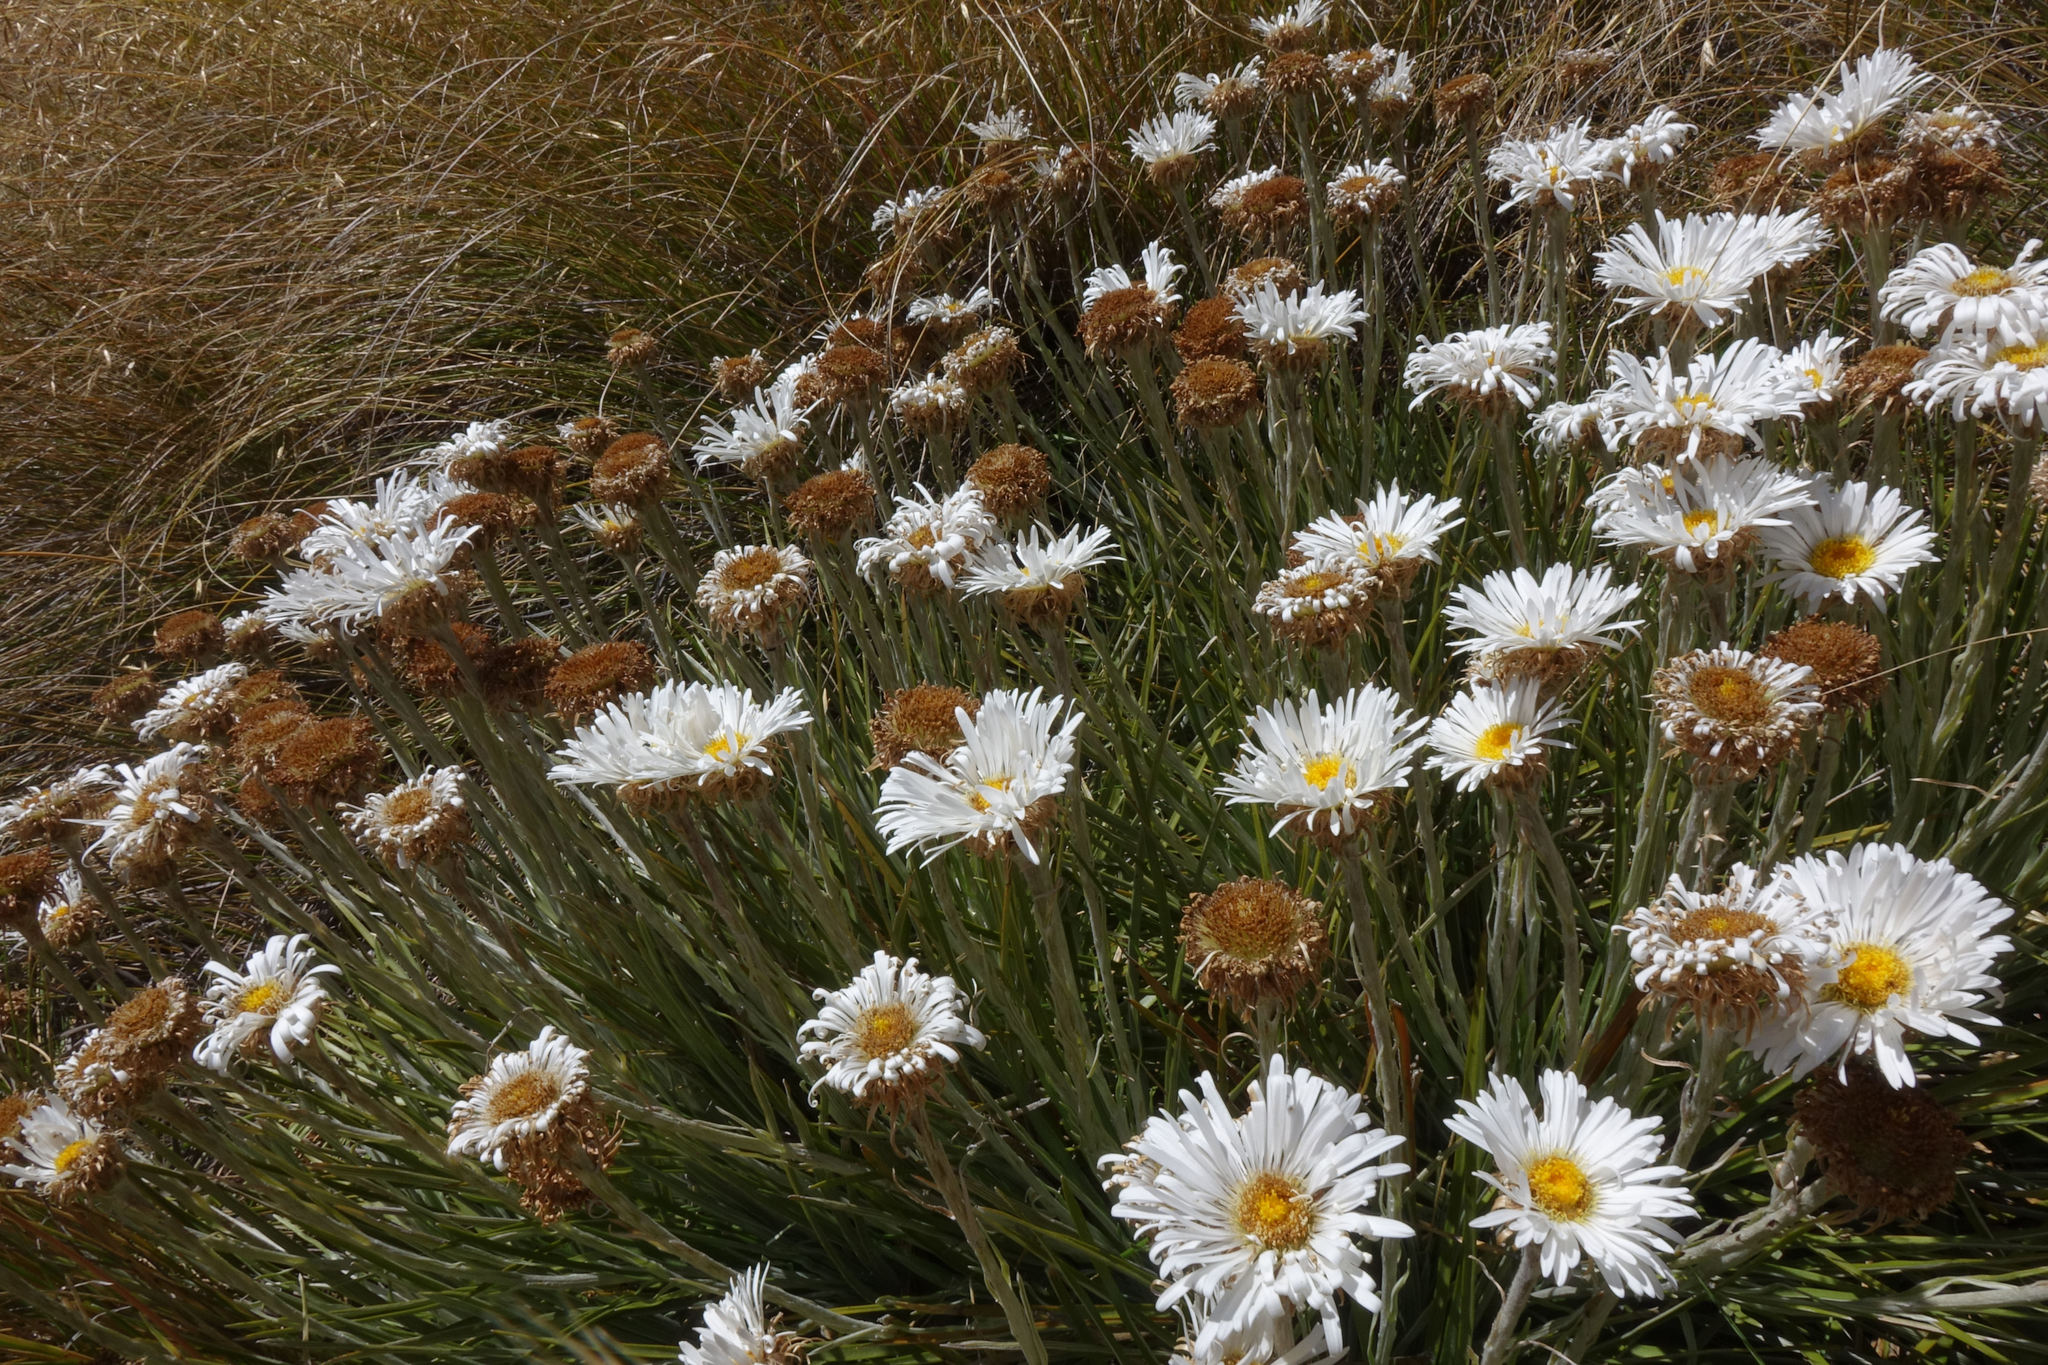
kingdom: Plantae
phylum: Tracheophyta
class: Magnoliopsida
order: Asterales
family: Asteraceae
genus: Celmisia
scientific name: Celmisia lyallii
